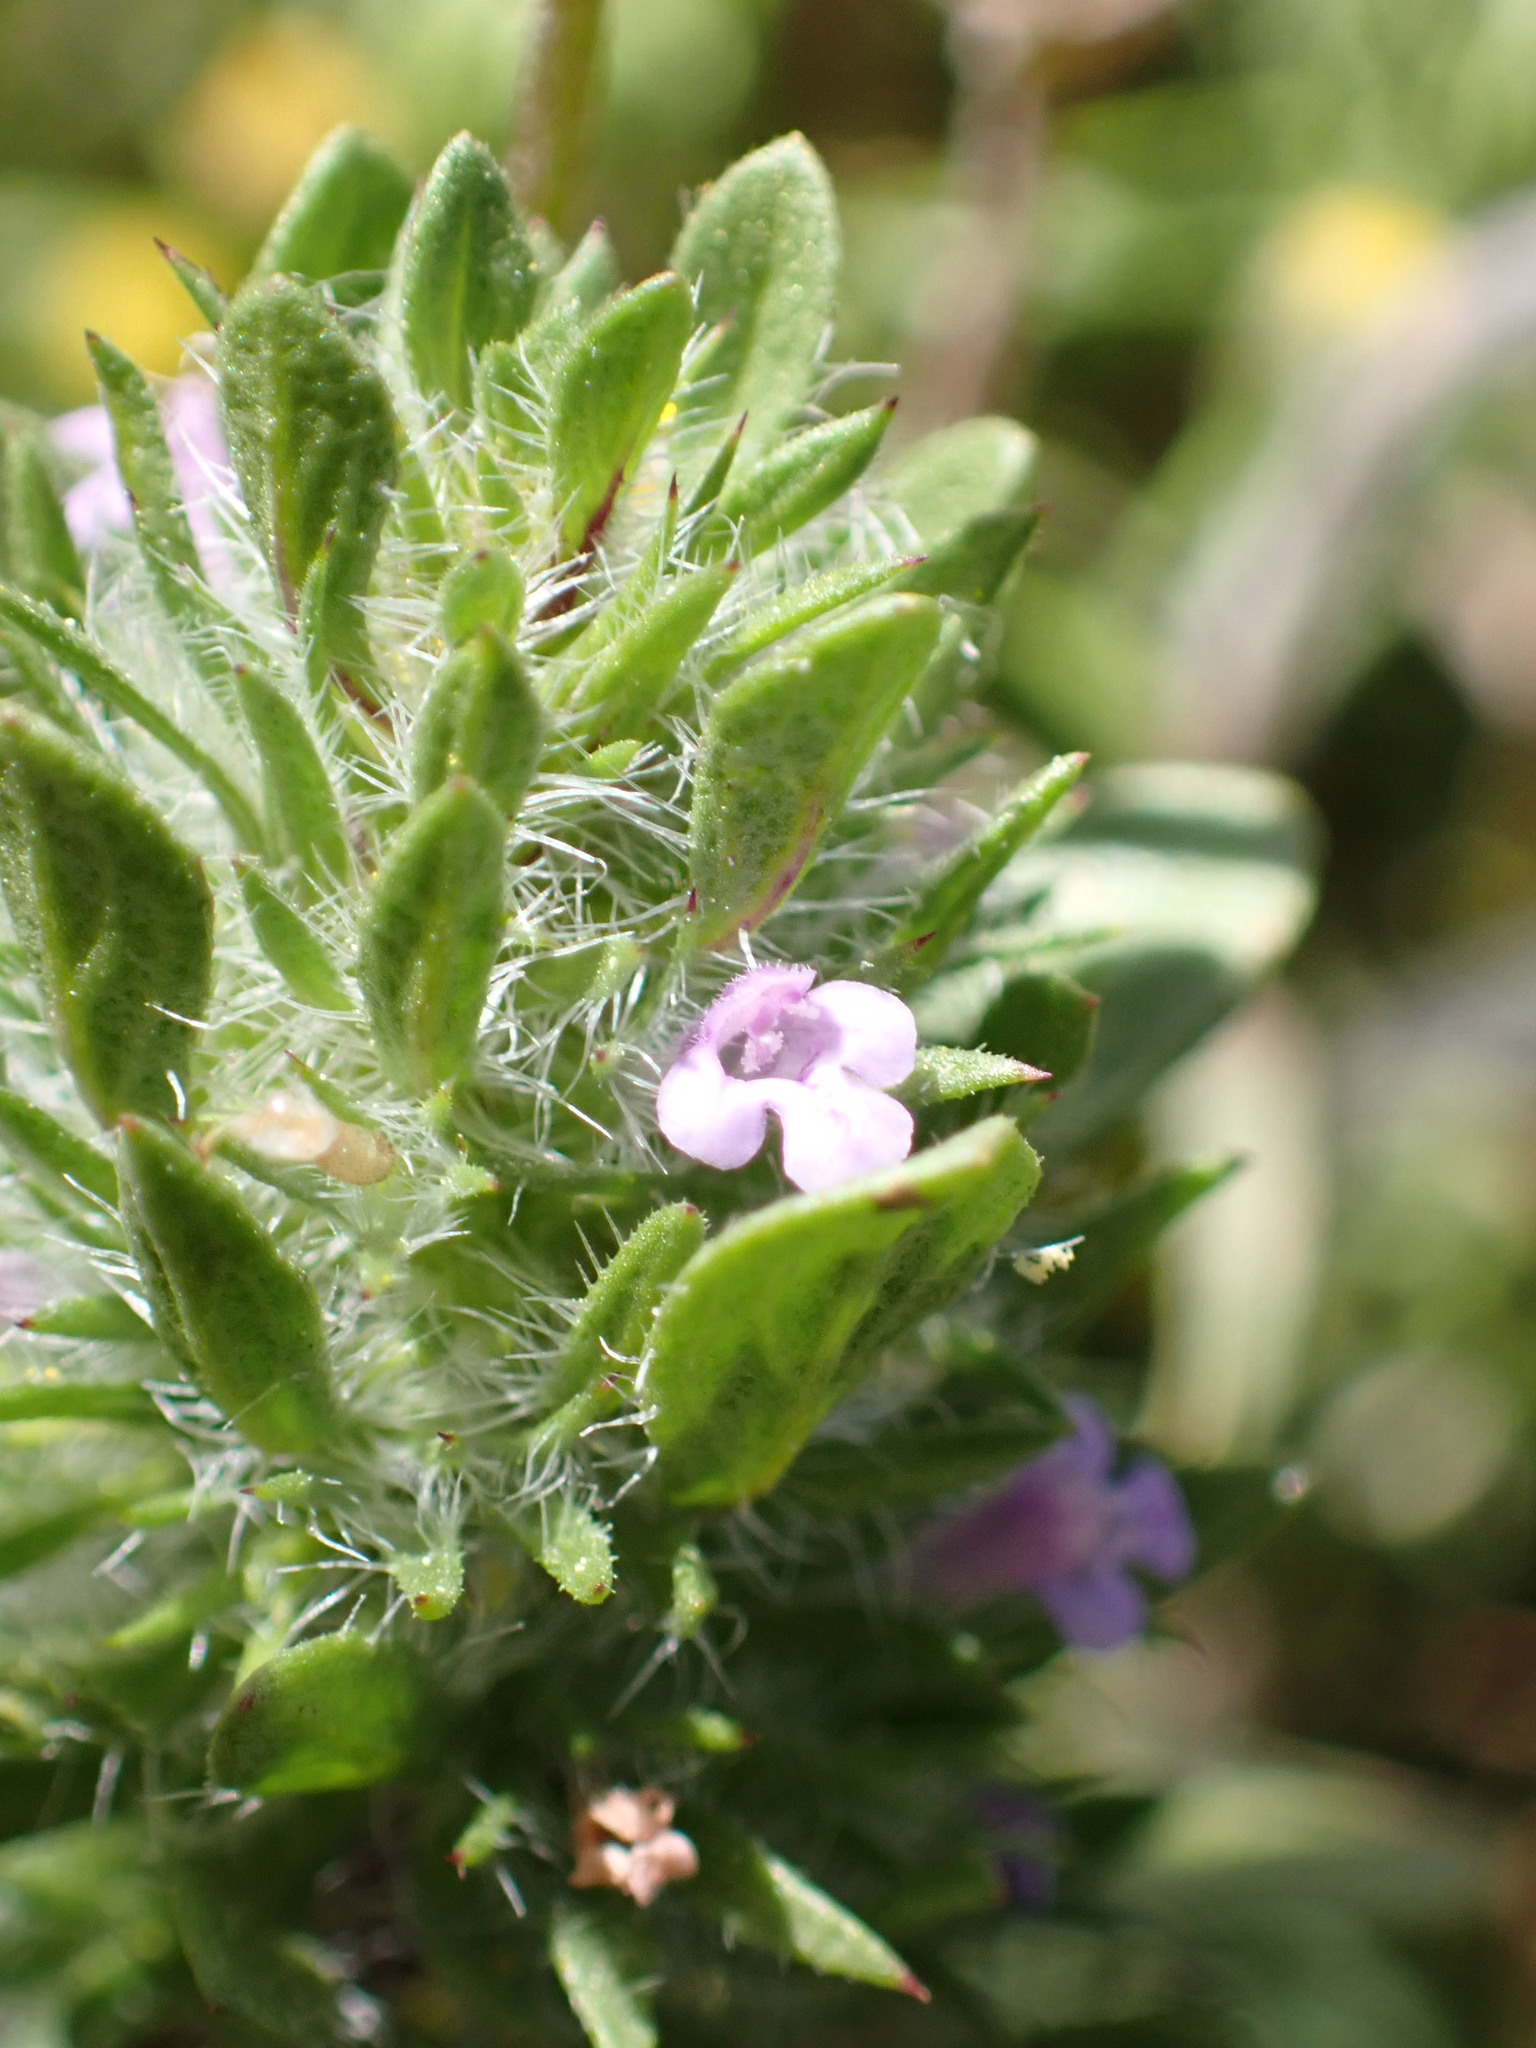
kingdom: Plantae
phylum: Tracheophyta
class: Magnoliopsida
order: Lamiales
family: Lamiaceae
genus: Pogogyne
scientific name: Pogogyne zizyphoroides
